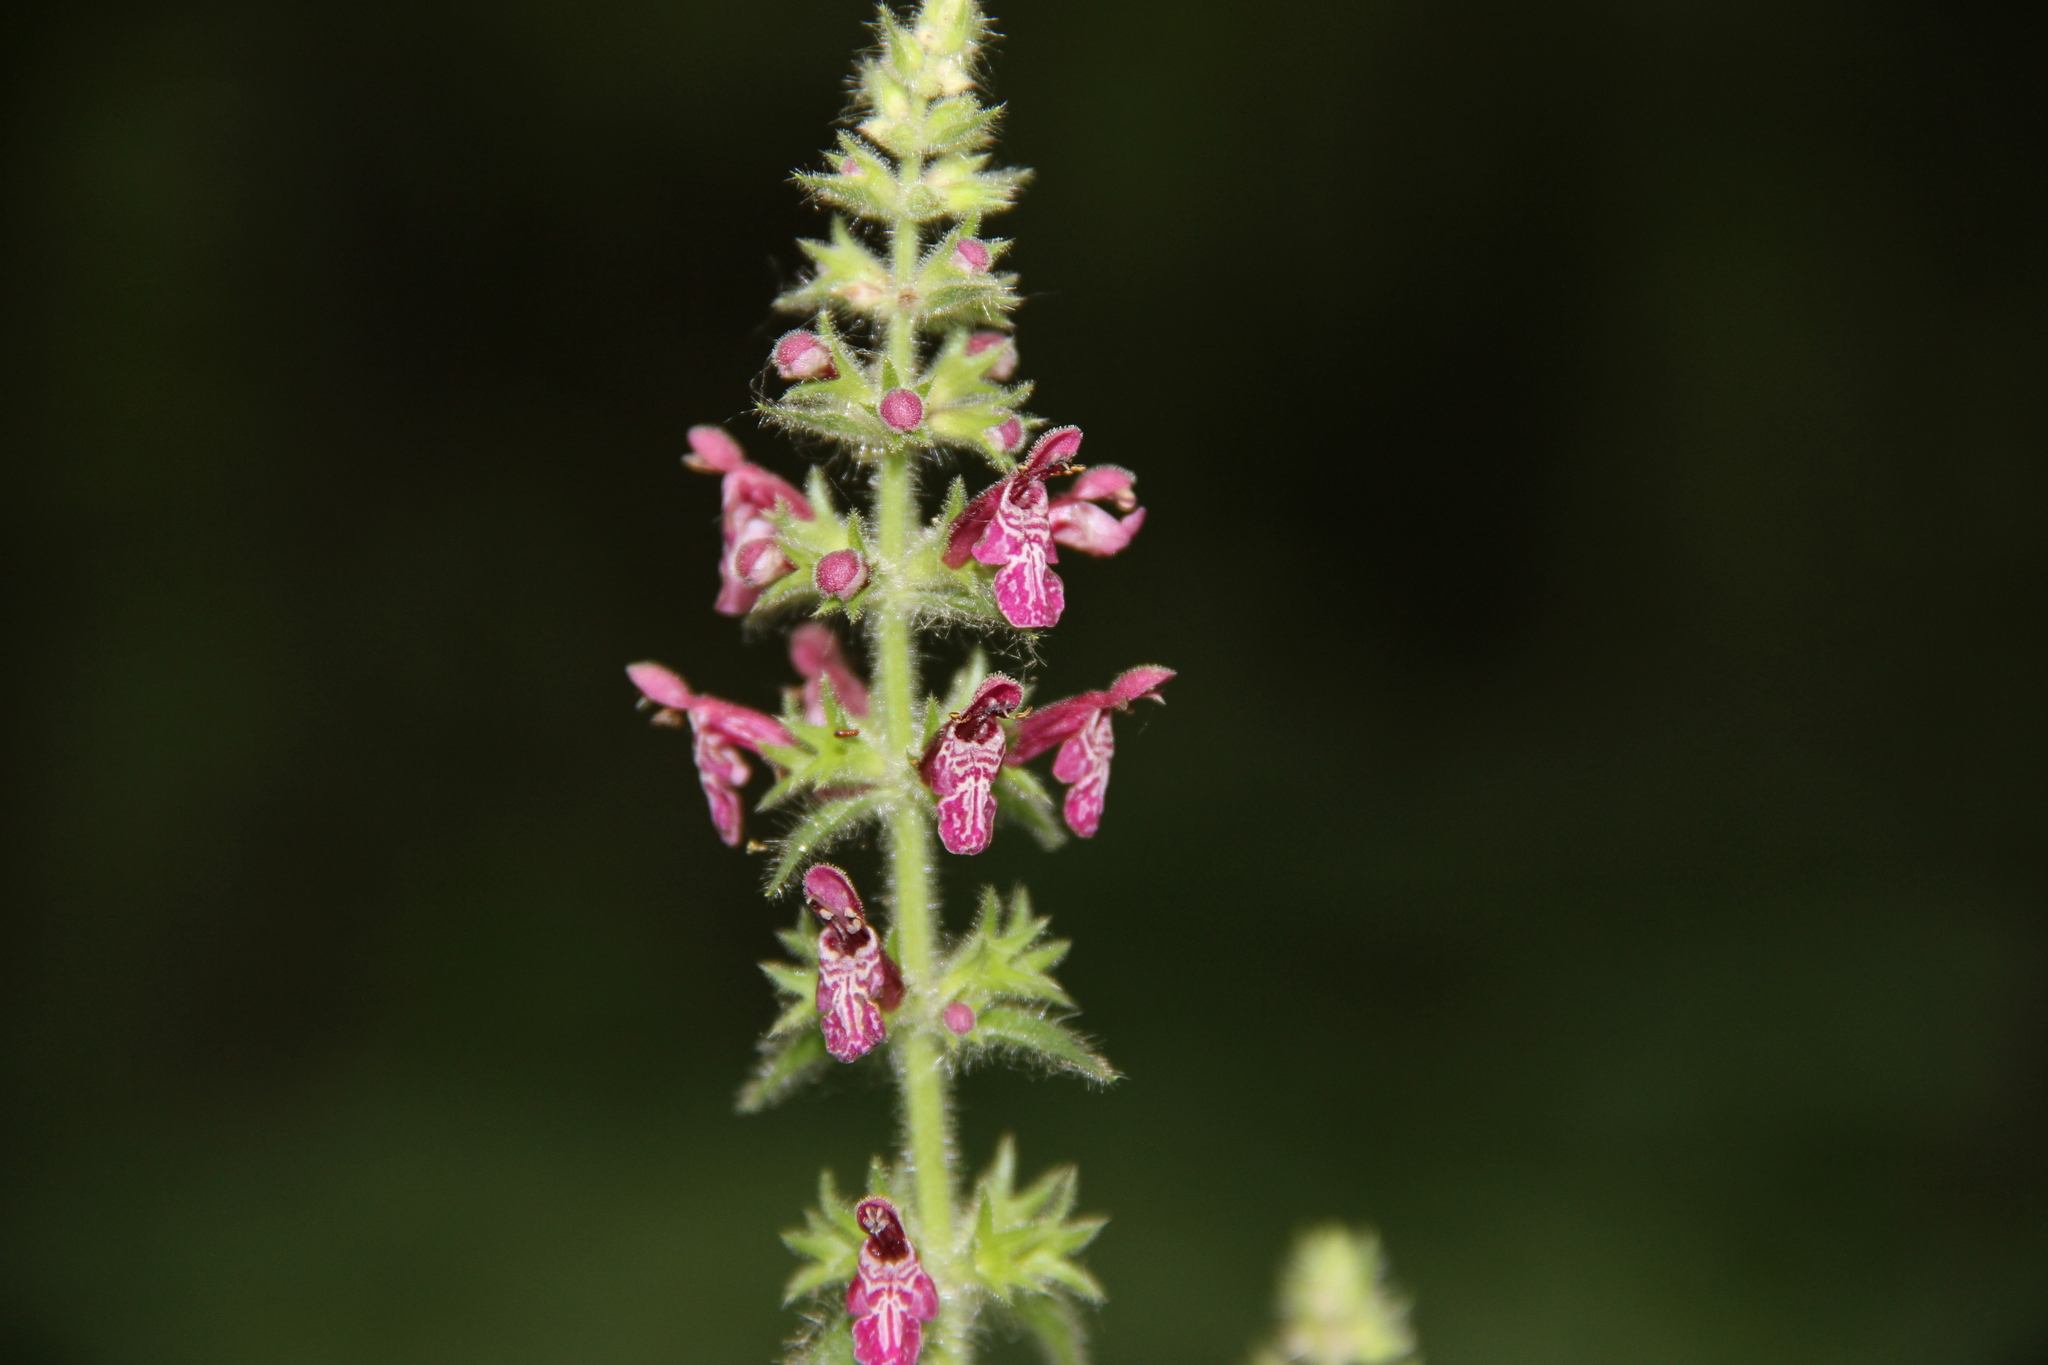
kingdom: Plantae
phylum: Tracheophyta
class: Magnoliopsida
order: Lamiales
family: Lamiaceae
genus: Stachys
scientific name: Stachys sylvatica
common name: Hedge woundwort
